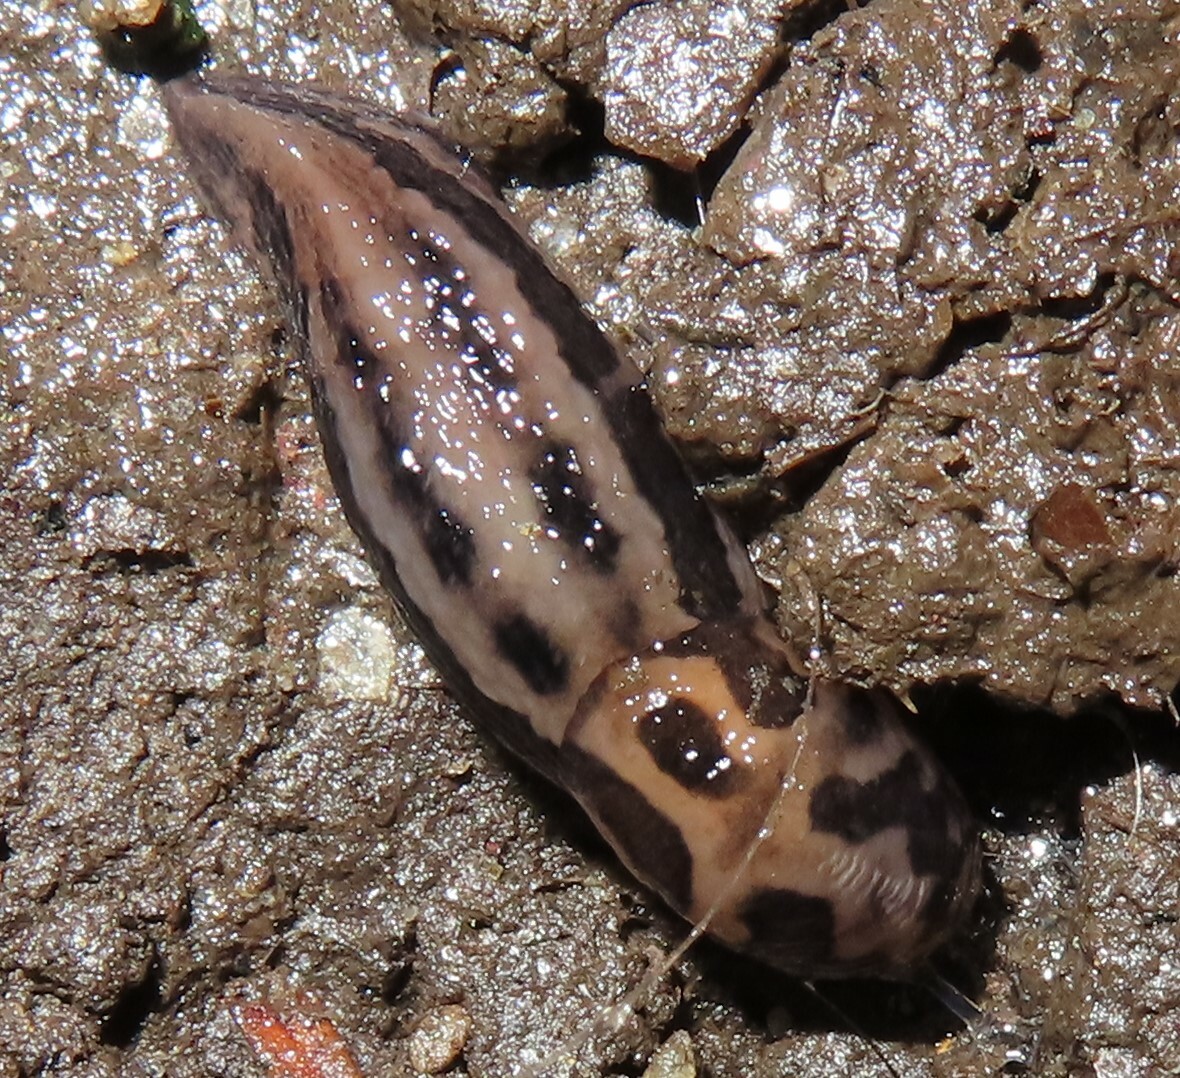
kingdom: Animalia
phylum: Mollusca
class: Gastropoda
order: Stylommatophora
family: Limacidae
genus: Limax
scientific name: Limax maximus
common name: Great grey slug
